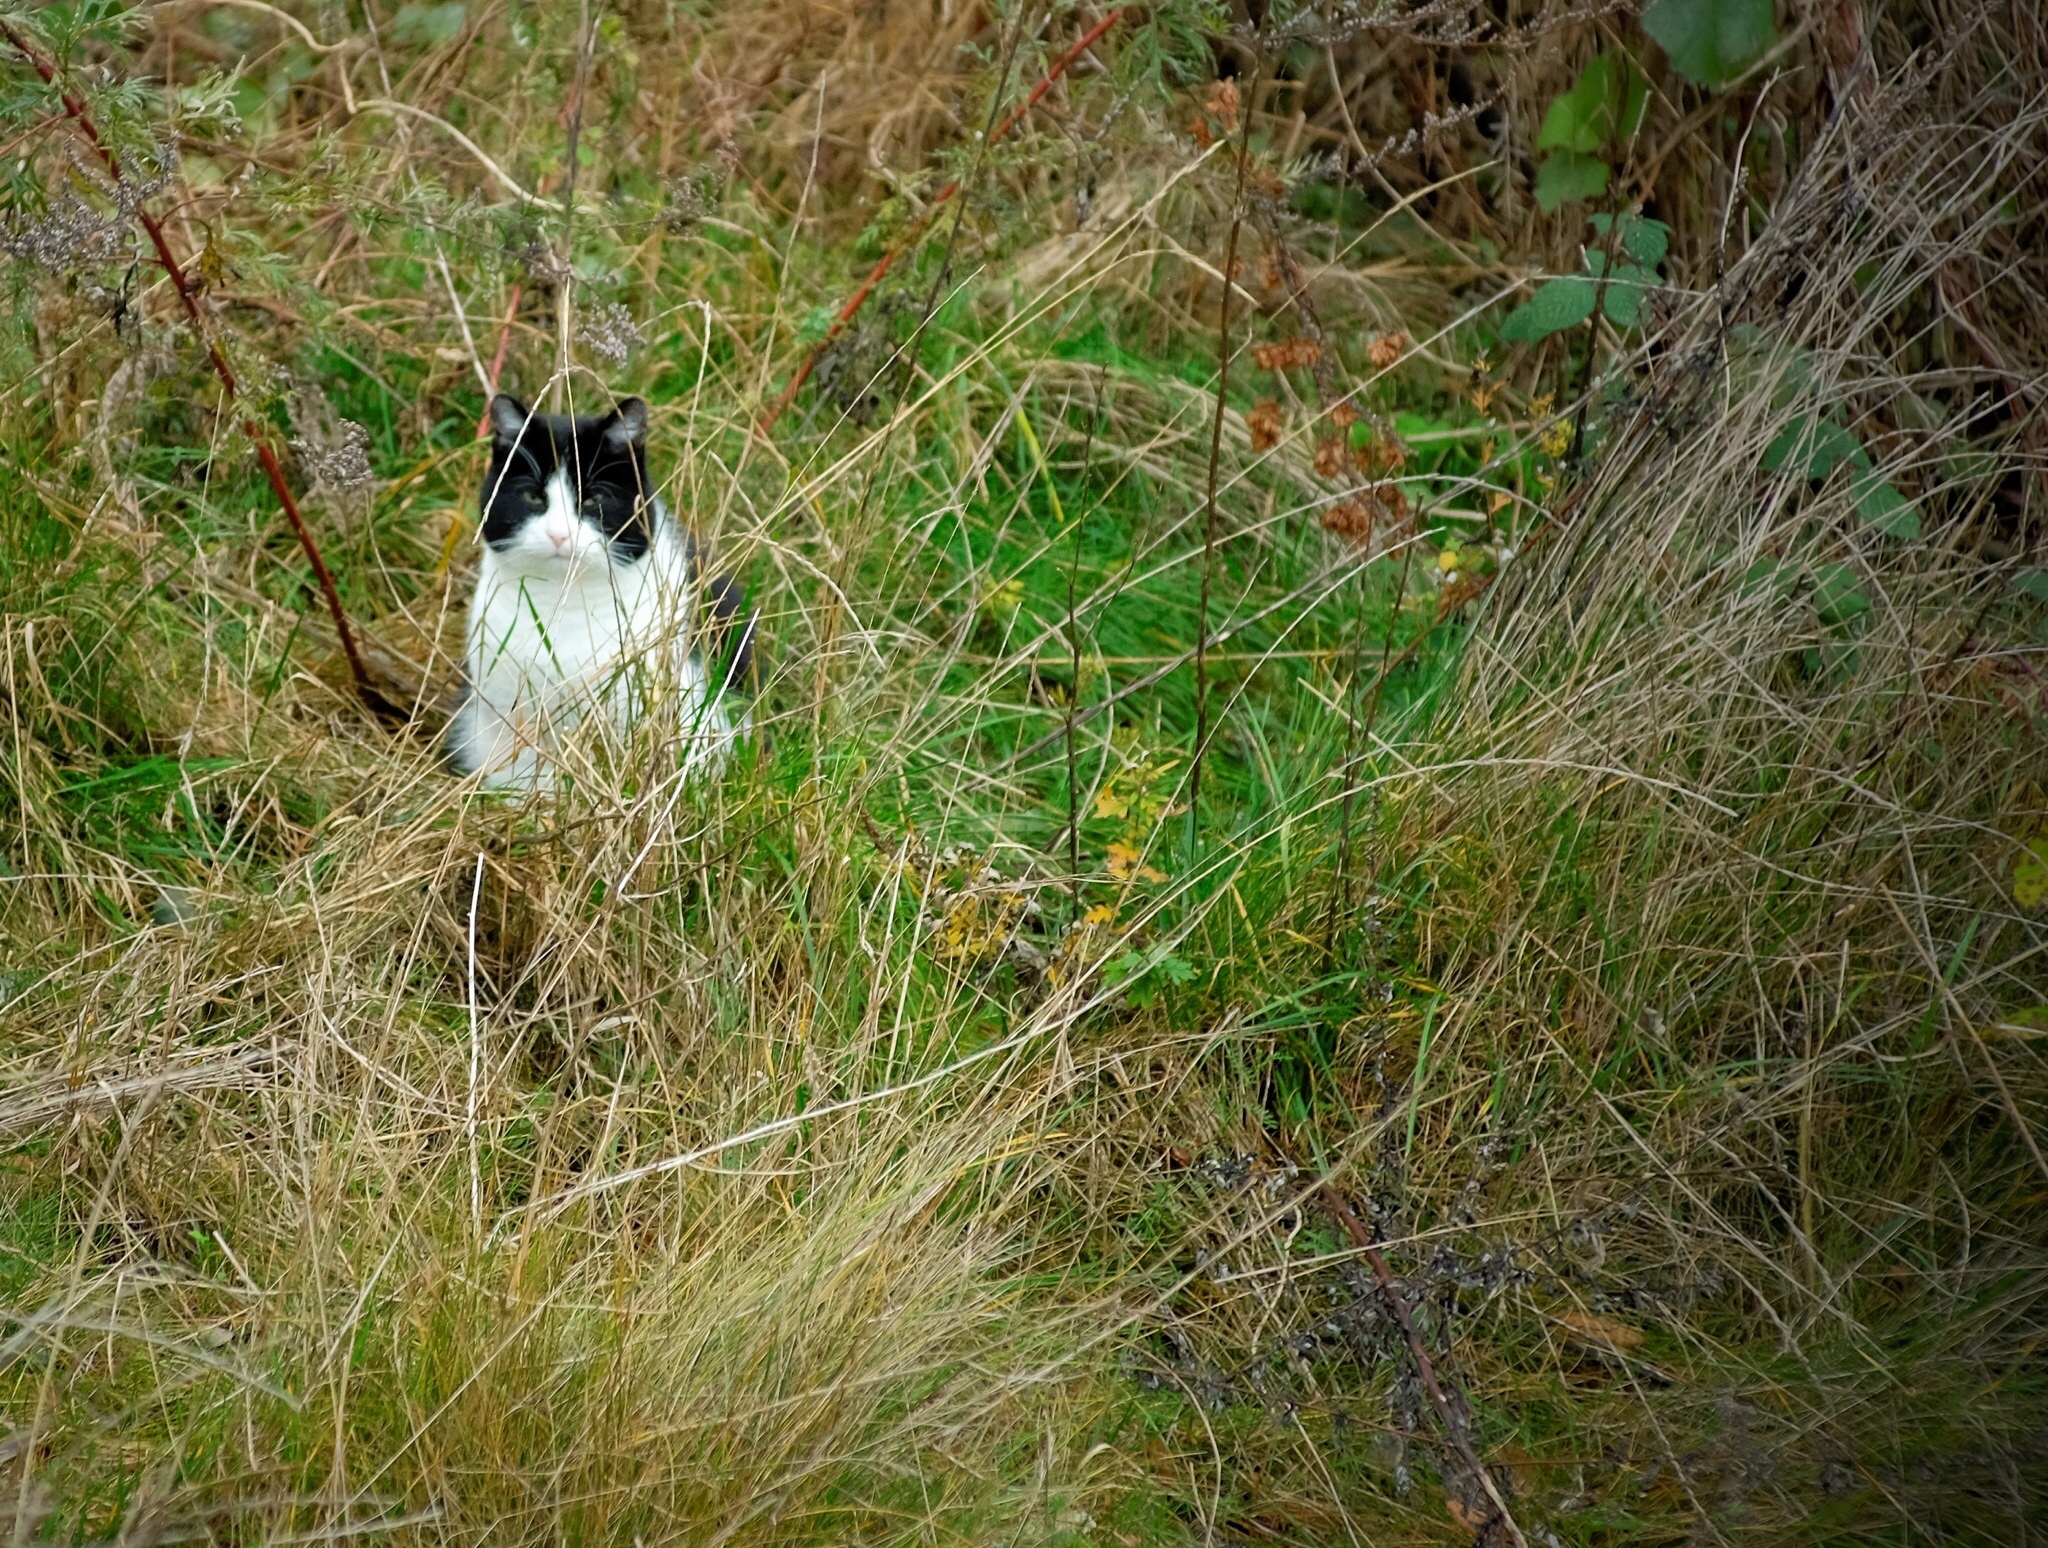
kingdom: Animalia
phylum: Chordata
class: Mammalia
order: Carnivora
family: Felidae
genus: Felis
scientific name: Felis catus
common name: Domestic cat
